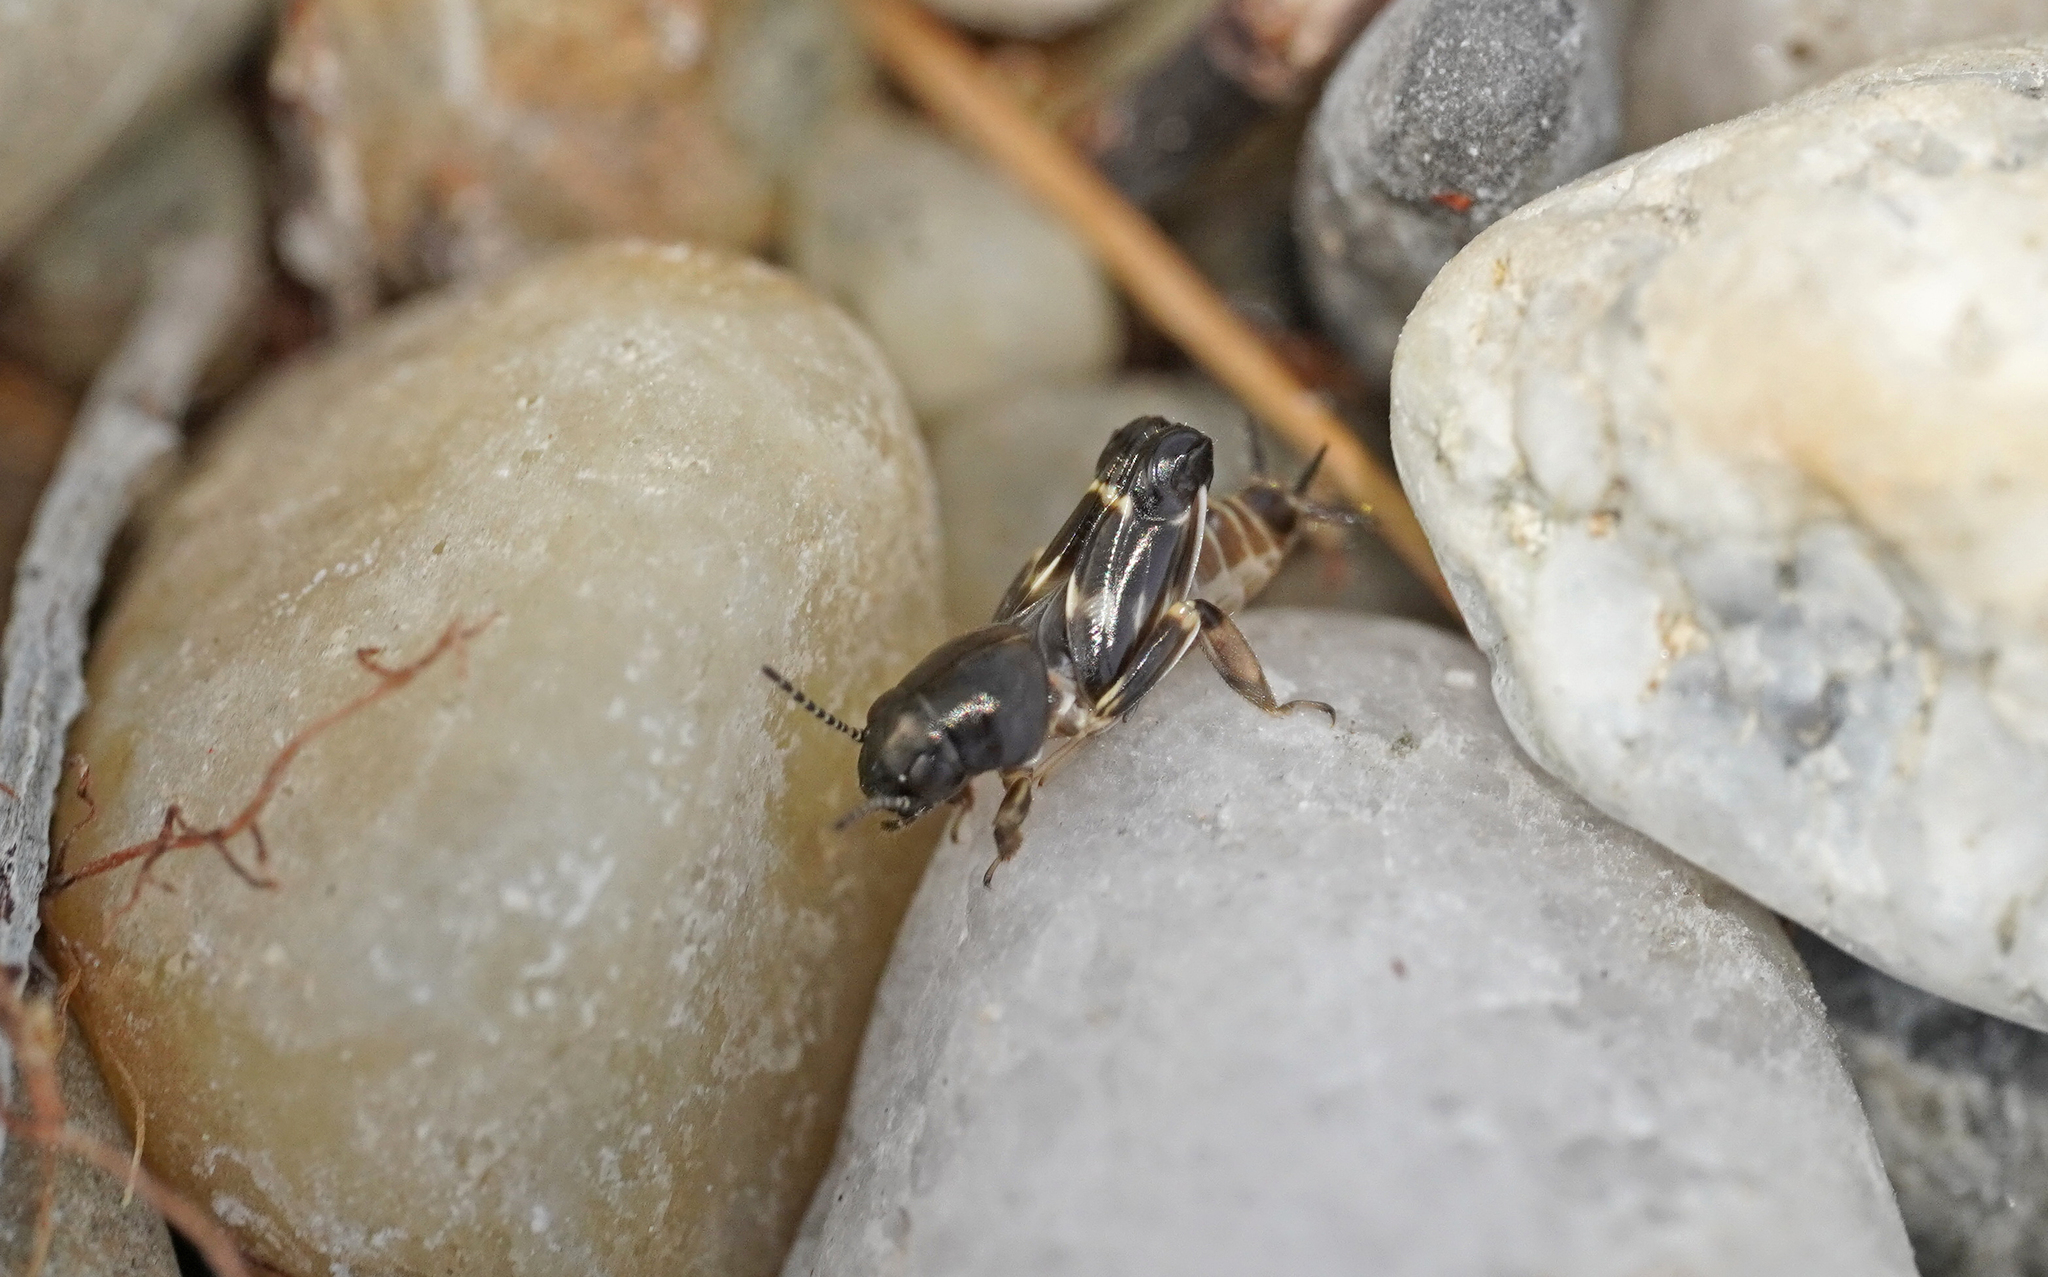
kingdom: Animalia
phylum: Arthropoda
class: Insecta
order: Orthoptera
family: Tridactylidae
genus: Xya
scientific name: Xya pfaendleri
